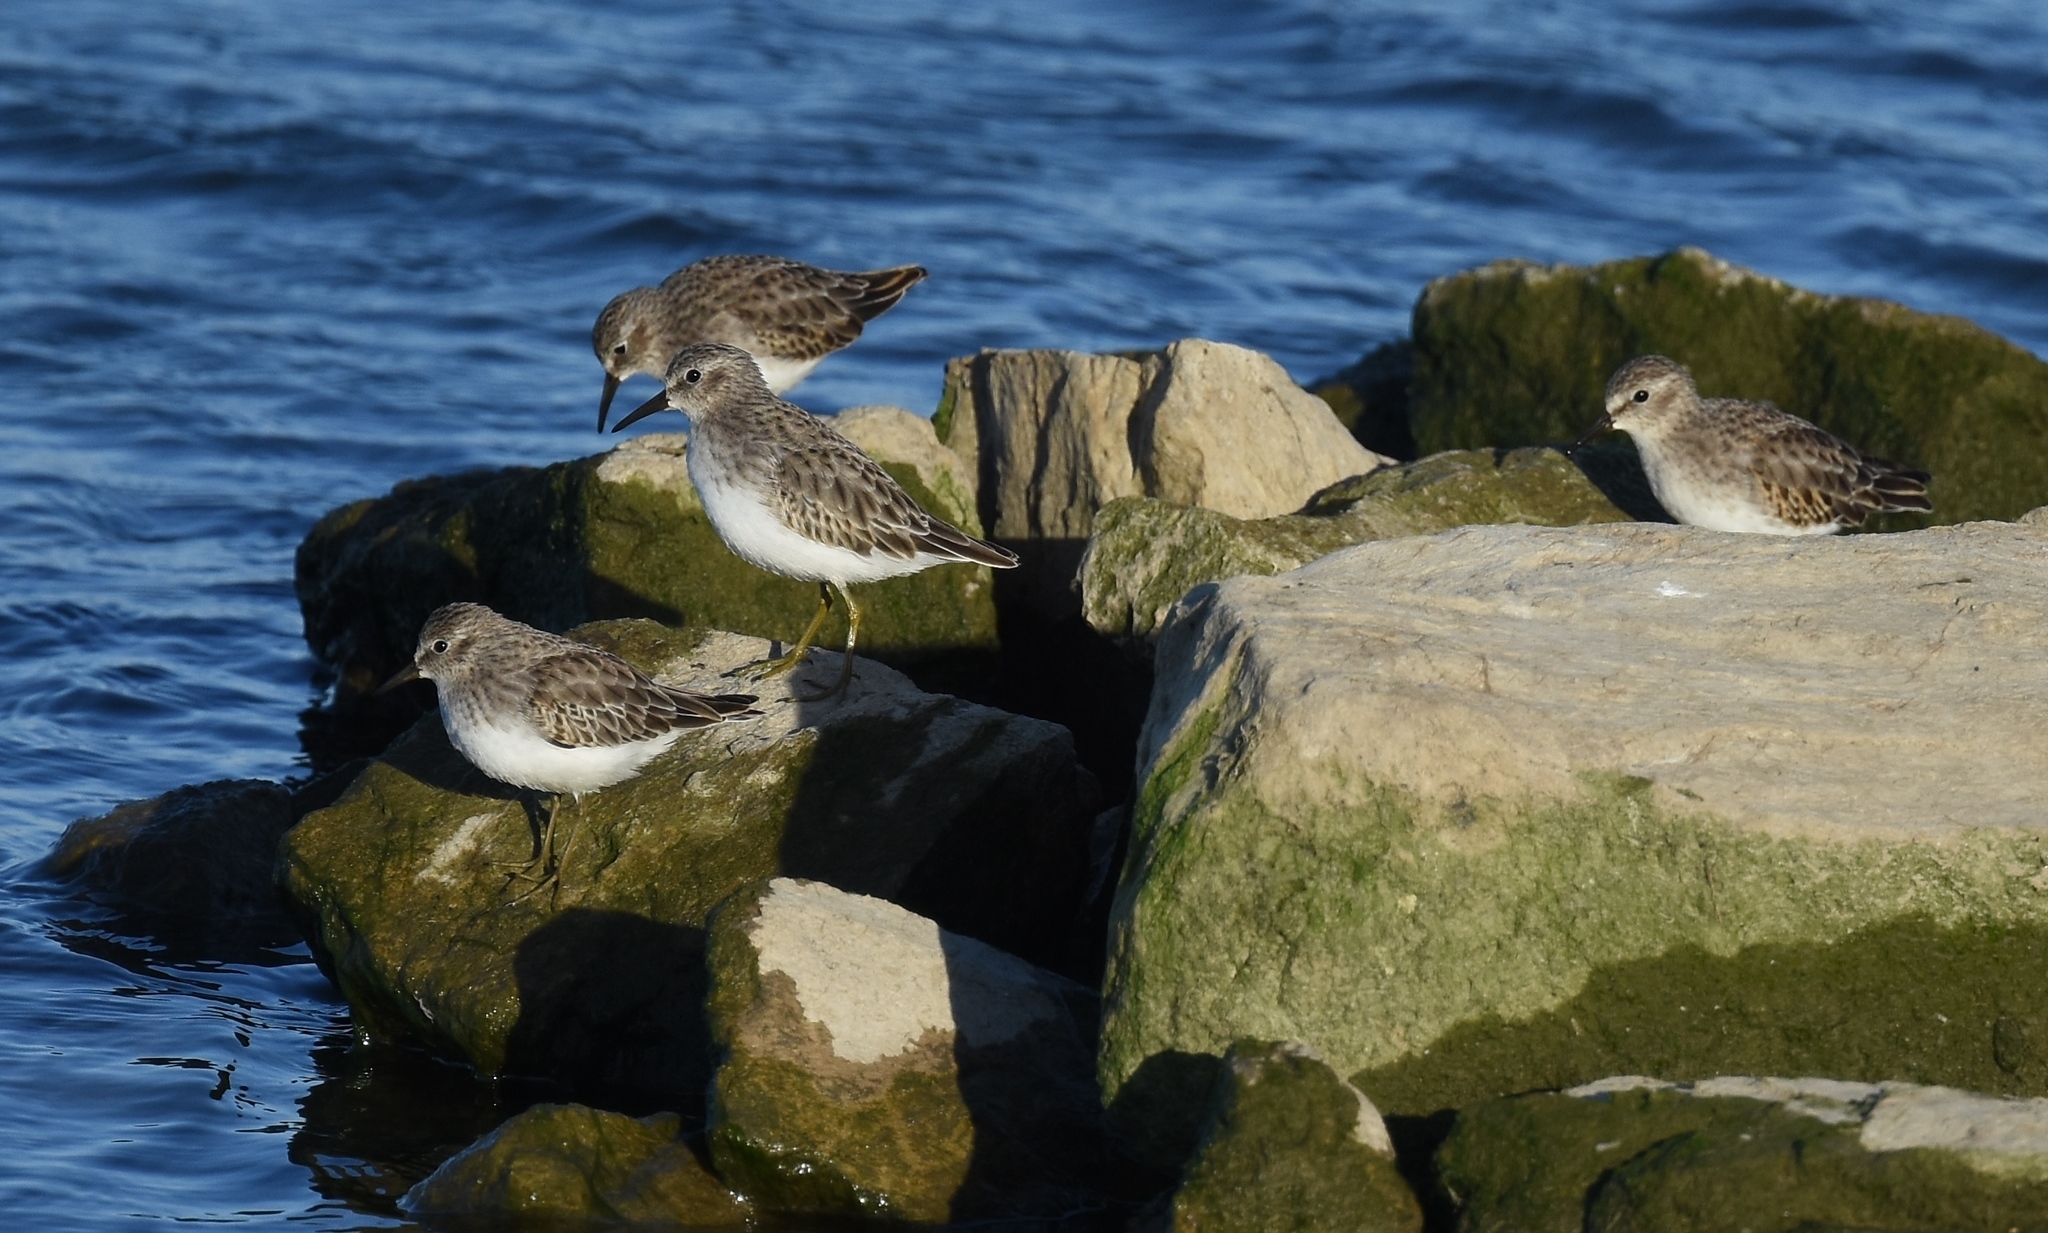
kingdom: Animalia
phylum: Chordata
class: Aves
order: Charadriiformes
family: Scolopacidae
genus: Calidris
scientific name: Calidris minutilla
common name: Least sandpiper
